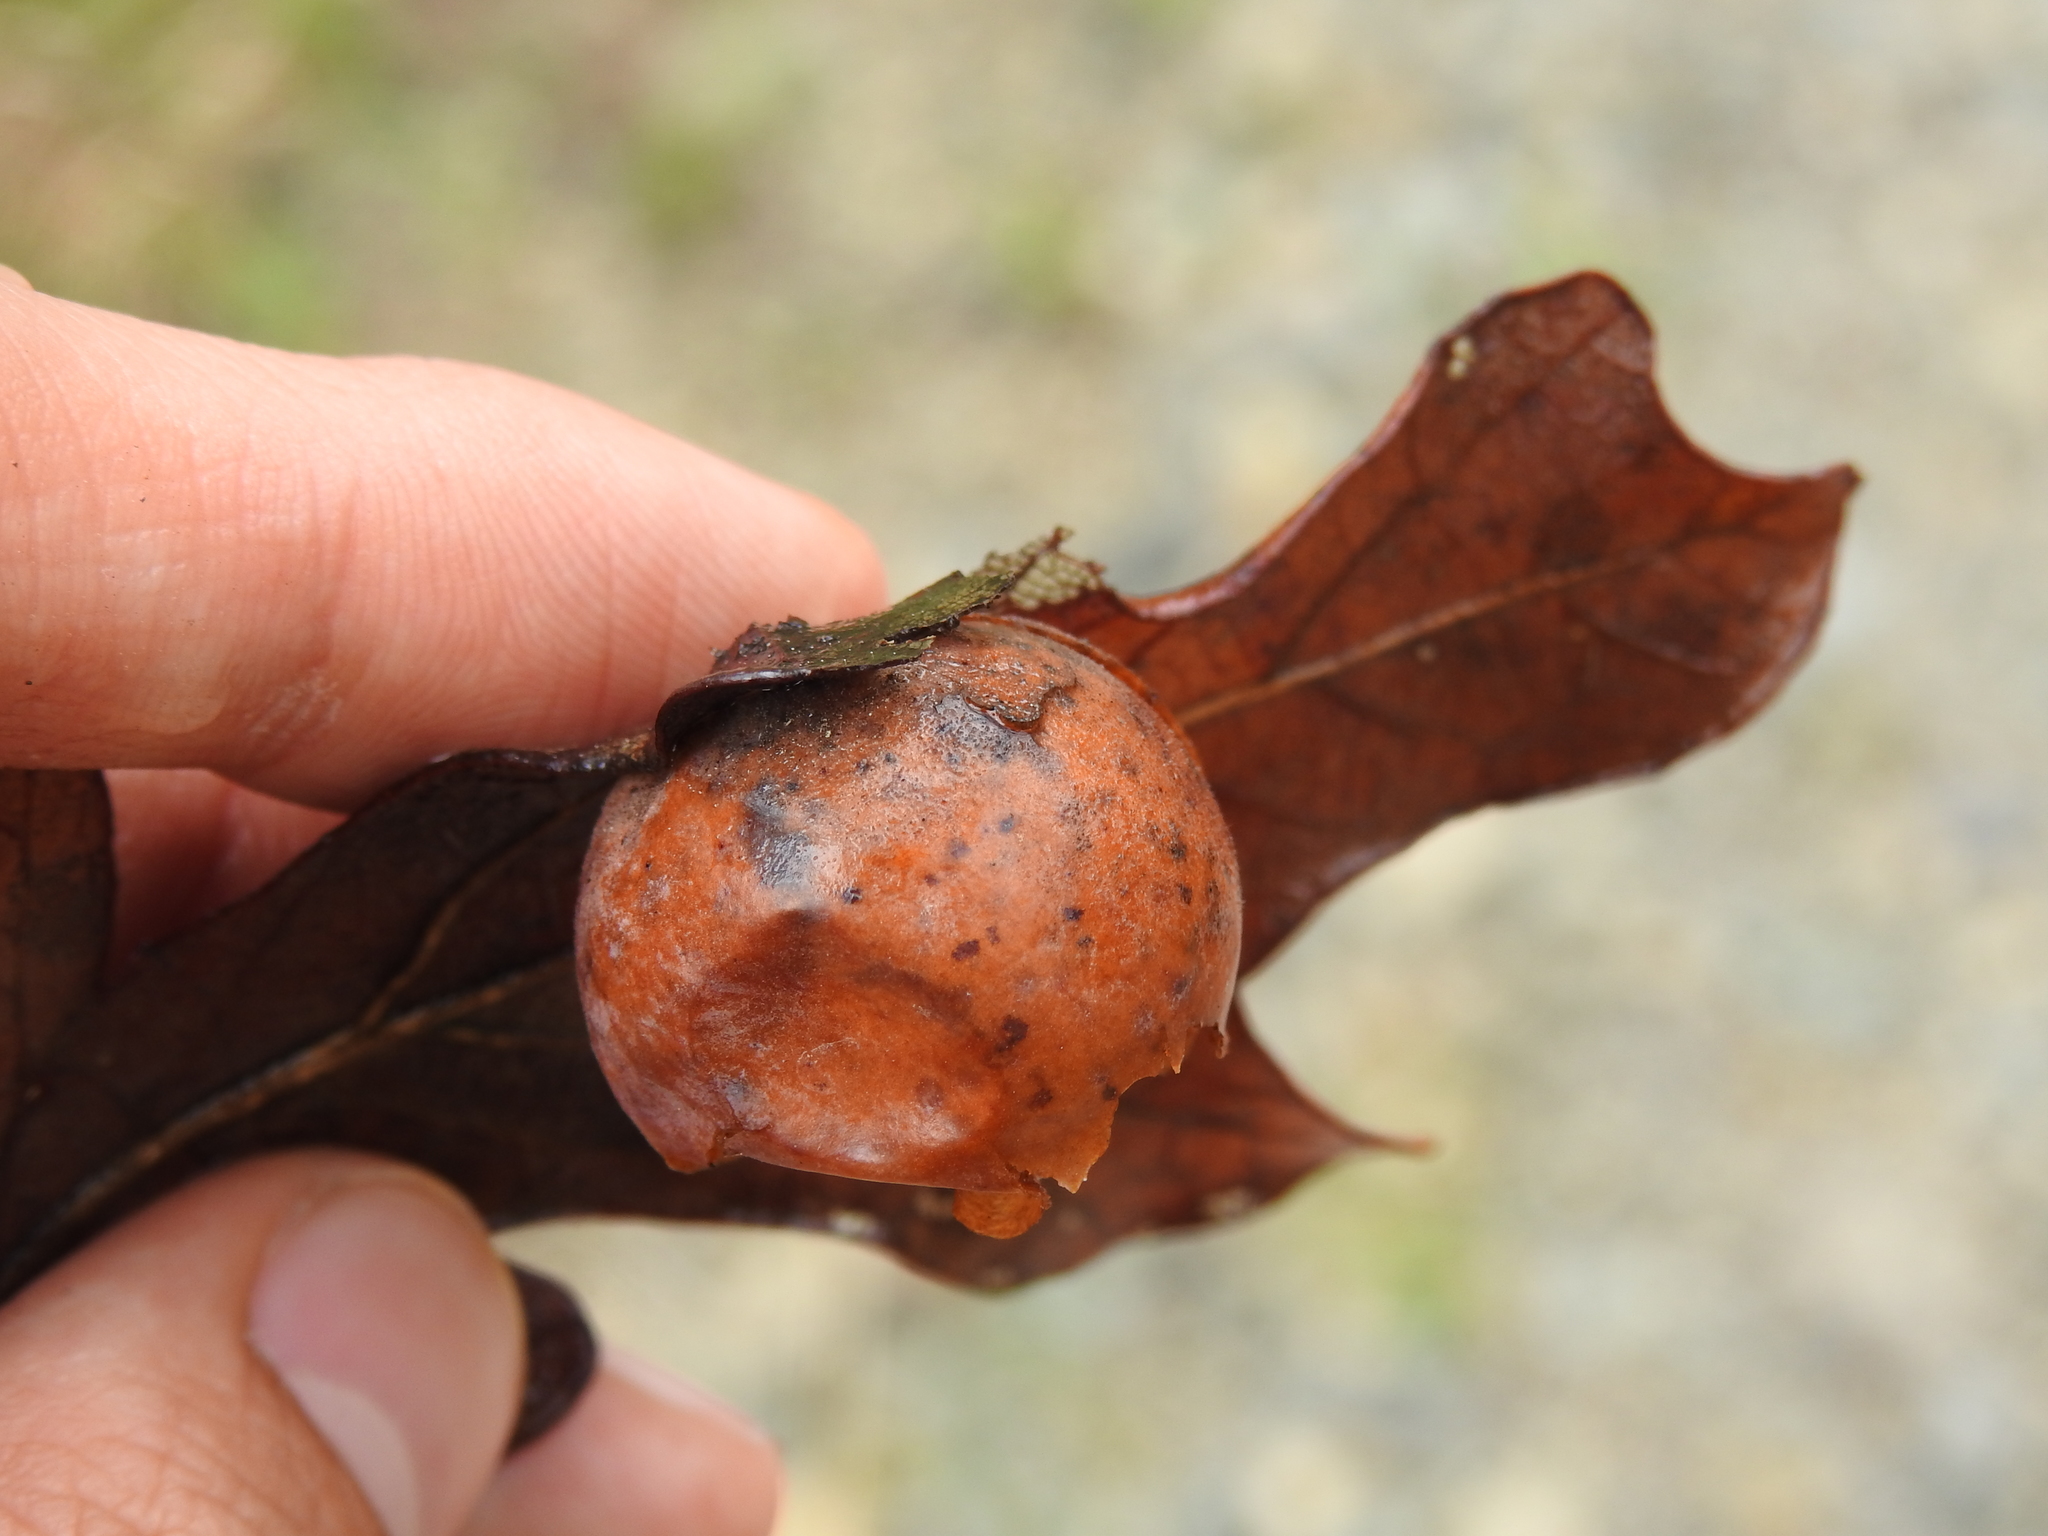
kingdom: Animalia
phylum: Arthropoda
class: Insecta
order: Hymenoptera
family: Cynipidae
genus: Atrusca
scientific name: Atrusca
